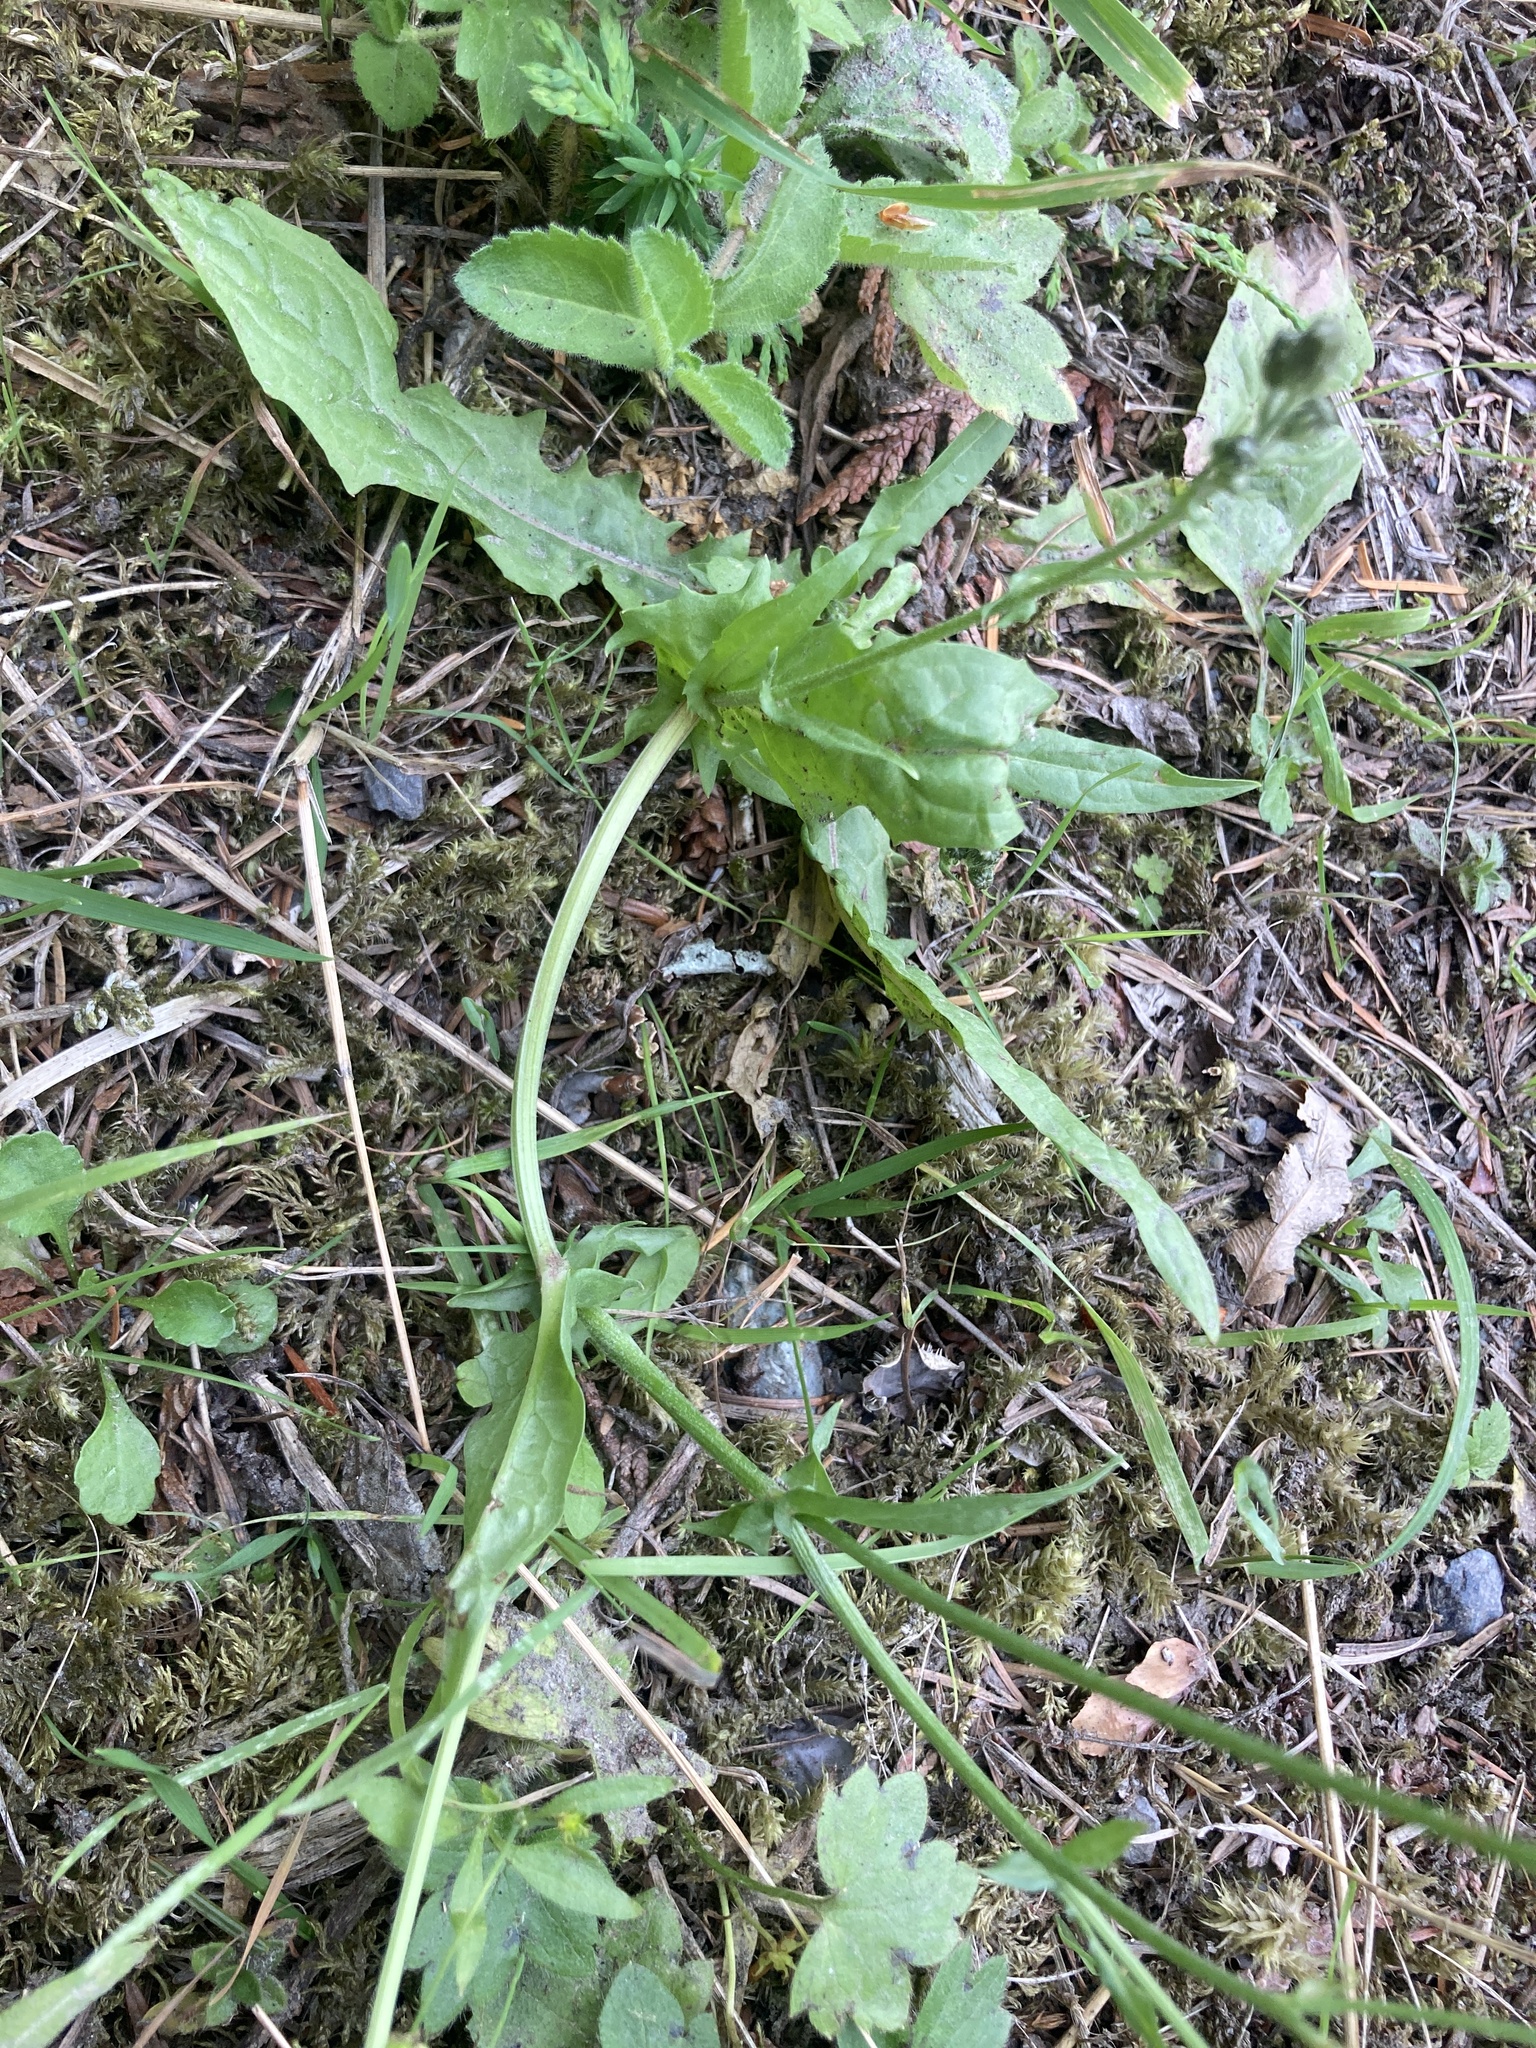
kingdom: Plantae
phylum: Tracheophyta
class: Magnoliopsida
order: Asterales
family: Asteraceae
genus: Crepis
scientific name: Crepis capillaris
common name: Smooth hawksbeard
